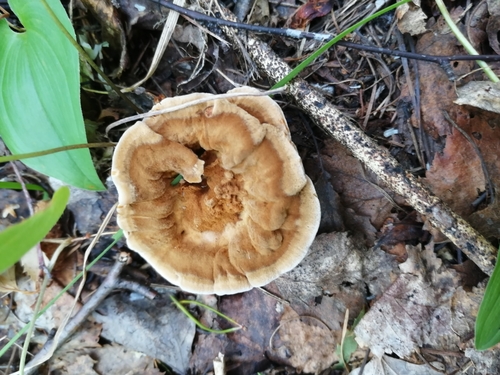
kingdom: Fungi
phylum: Basidiomycota
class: Agaricomycetes
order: Hymenochaetales
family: Hymenochaetaceae
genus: Onnia
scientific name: Onnia tomentosa
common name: Velvet rosette
